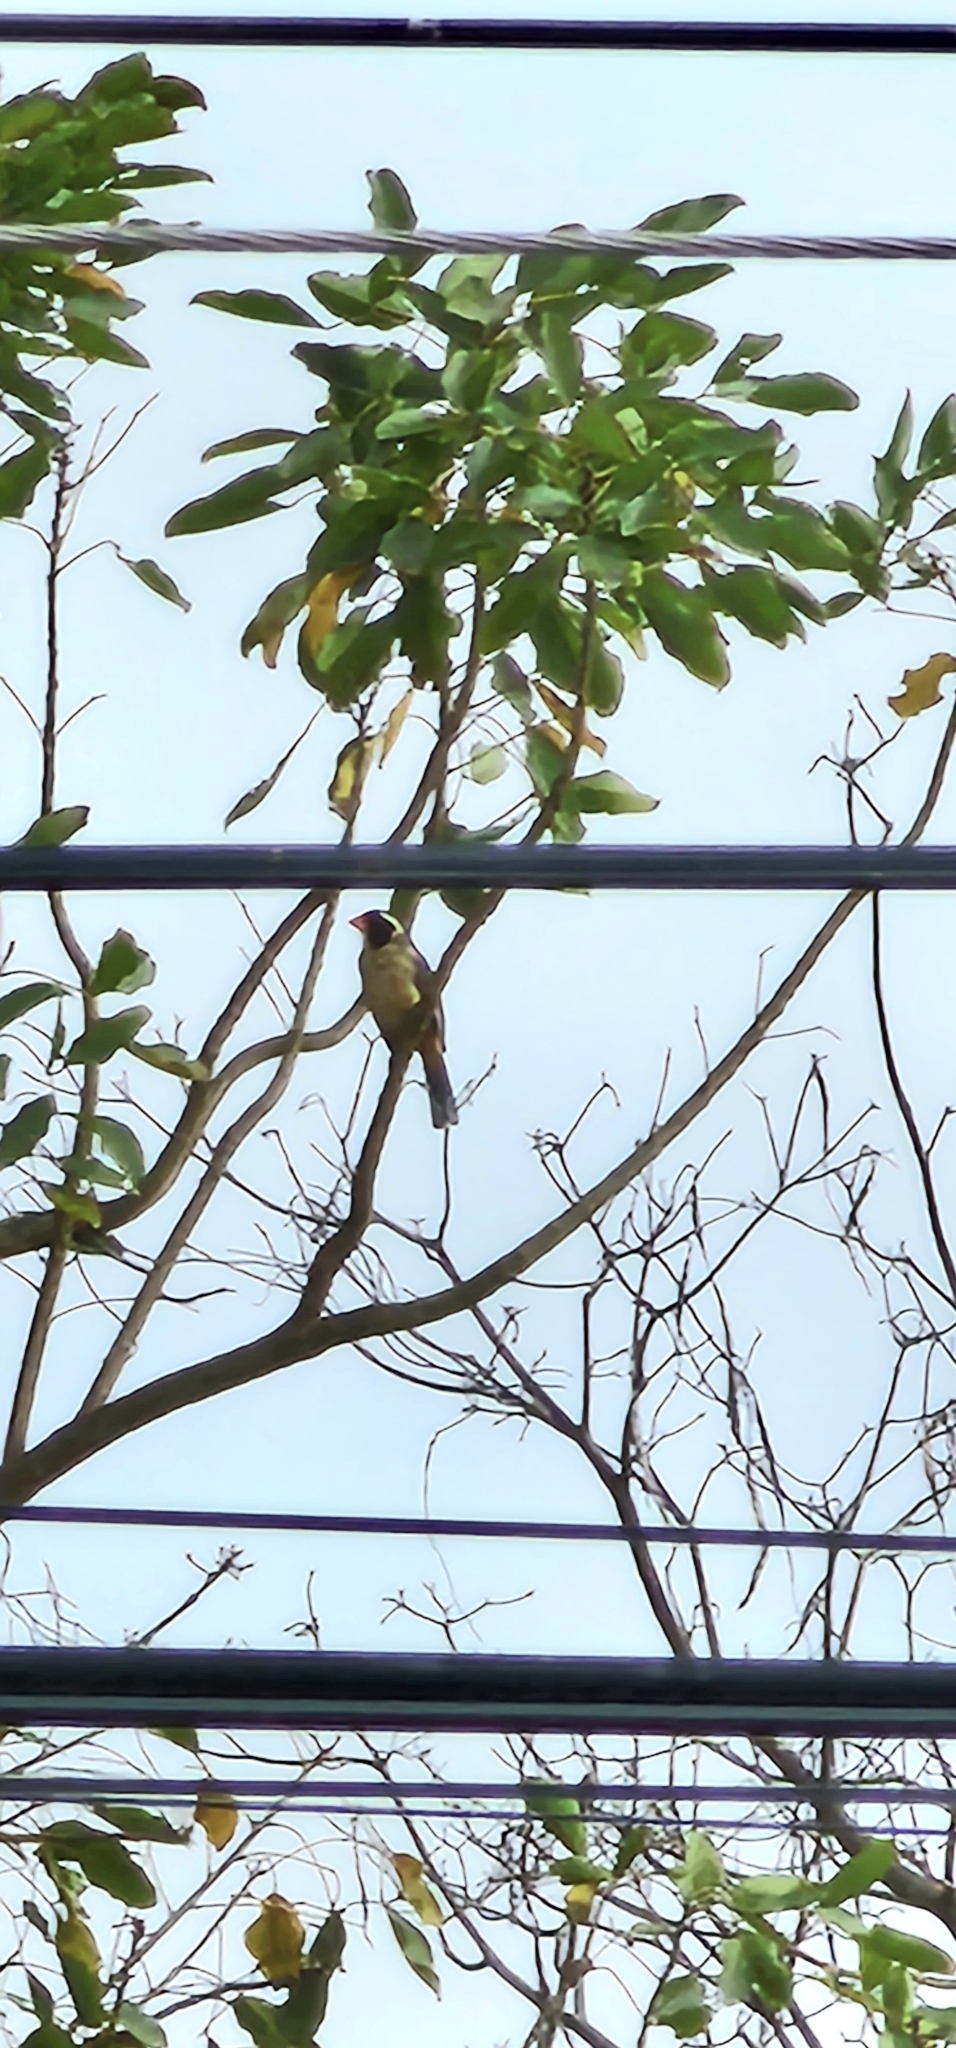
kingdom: Animalia
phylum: Chordata
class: Aves
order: Passeriformes
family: Thraupidae
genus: Saltator
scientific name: Saltator aurantiirostris
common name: Golden-billed saltator
